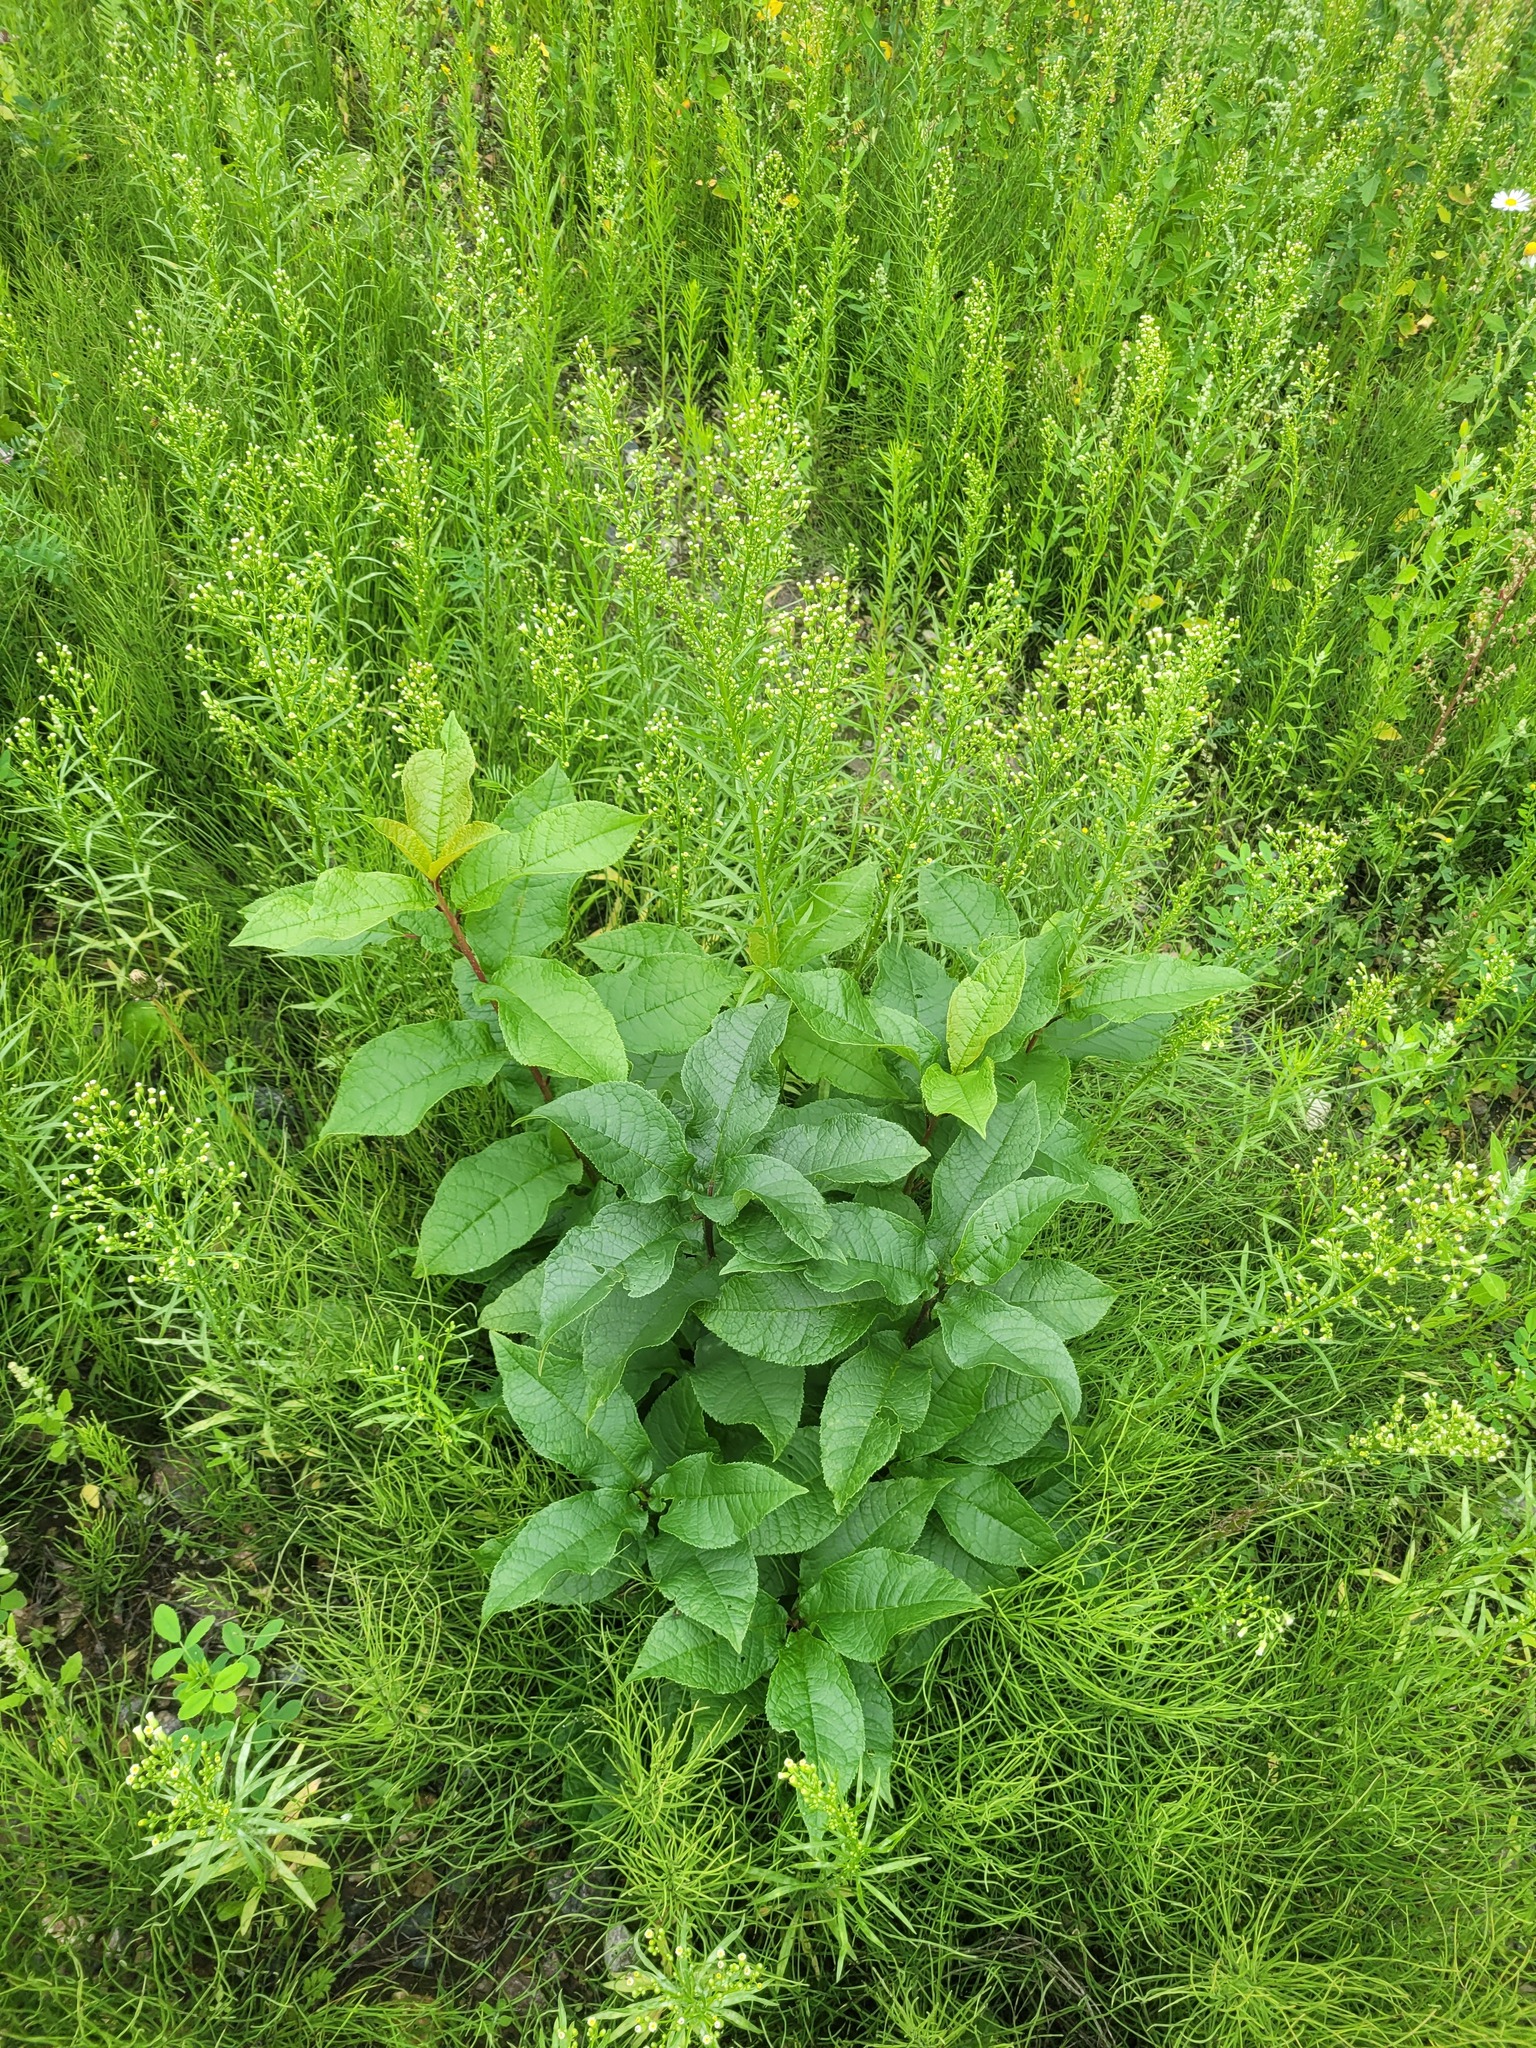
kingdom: Plantae
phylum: Tracheophyta
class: Magnoliopsida
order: Rosales
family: Rosaceae
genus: Prunus
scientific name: Prunus padus
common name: Bird cherry
